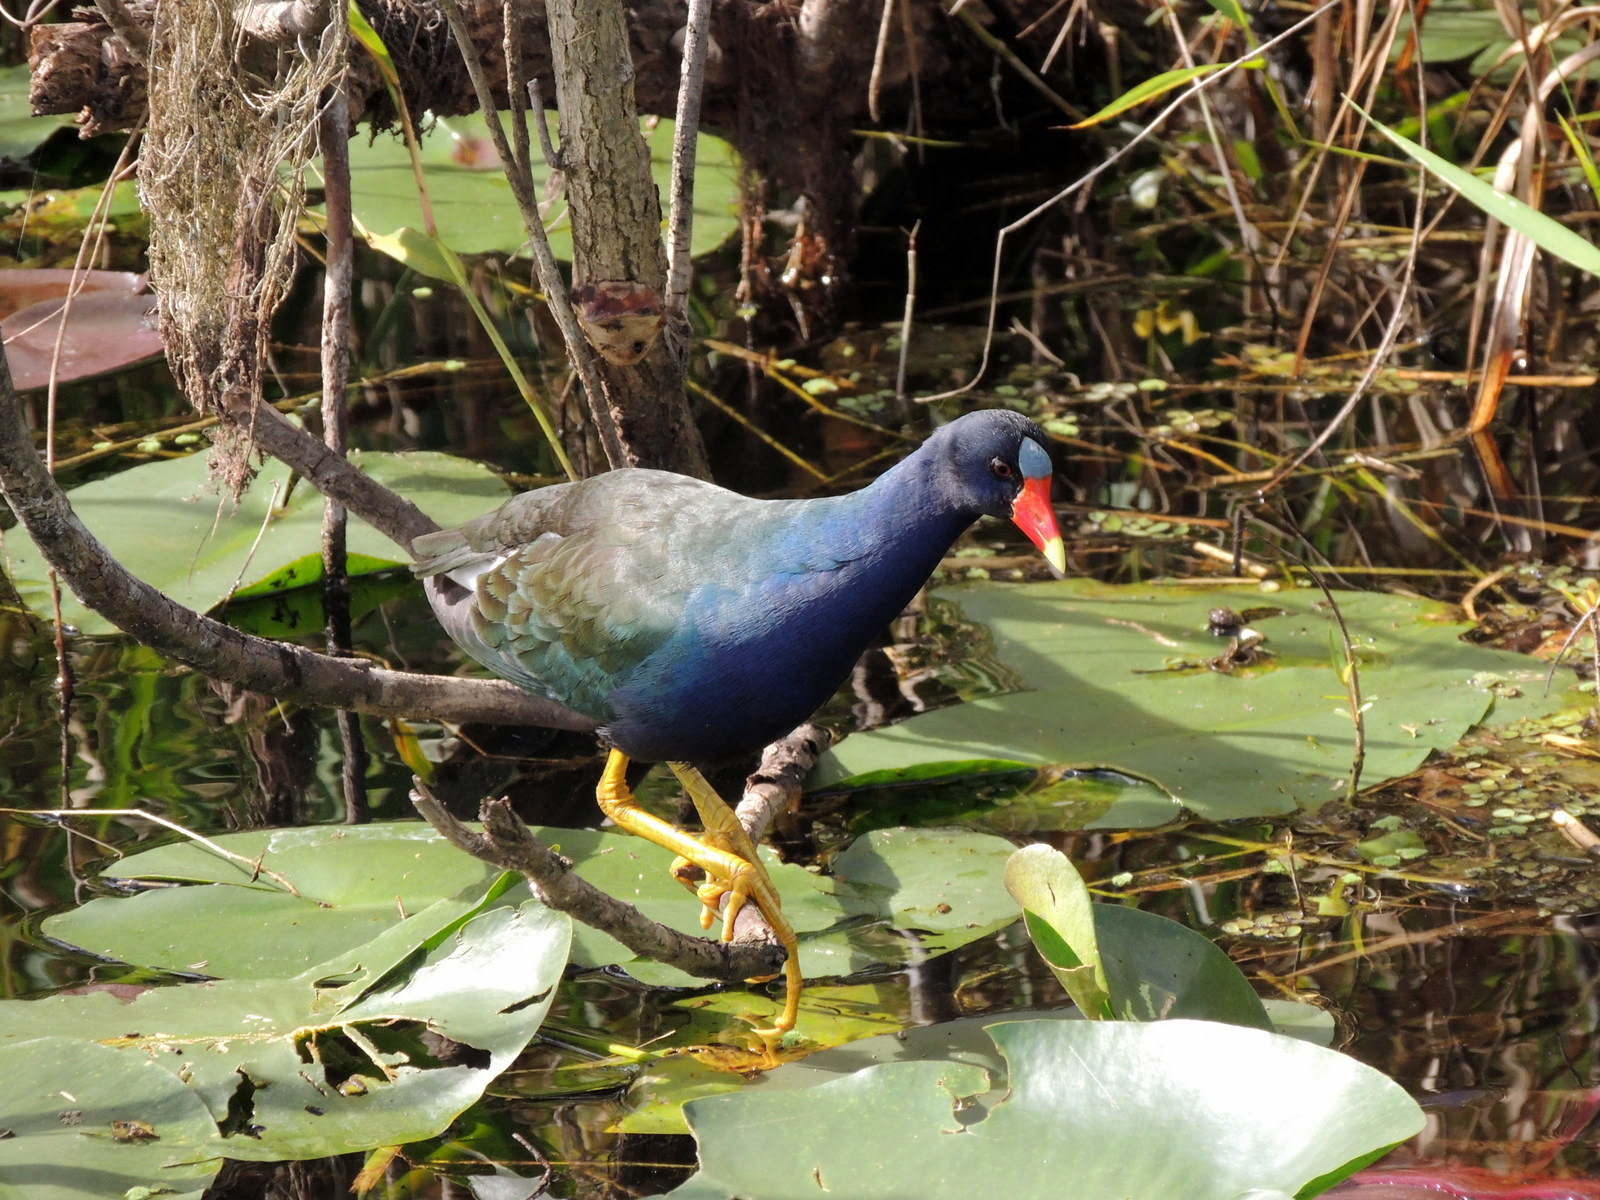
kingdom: Animalia
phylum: Chordata
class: Aves
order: Gruiformes
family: Rallidae
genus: Porphyrio
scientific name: Porphyrio martinica
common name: Purple gallinule
